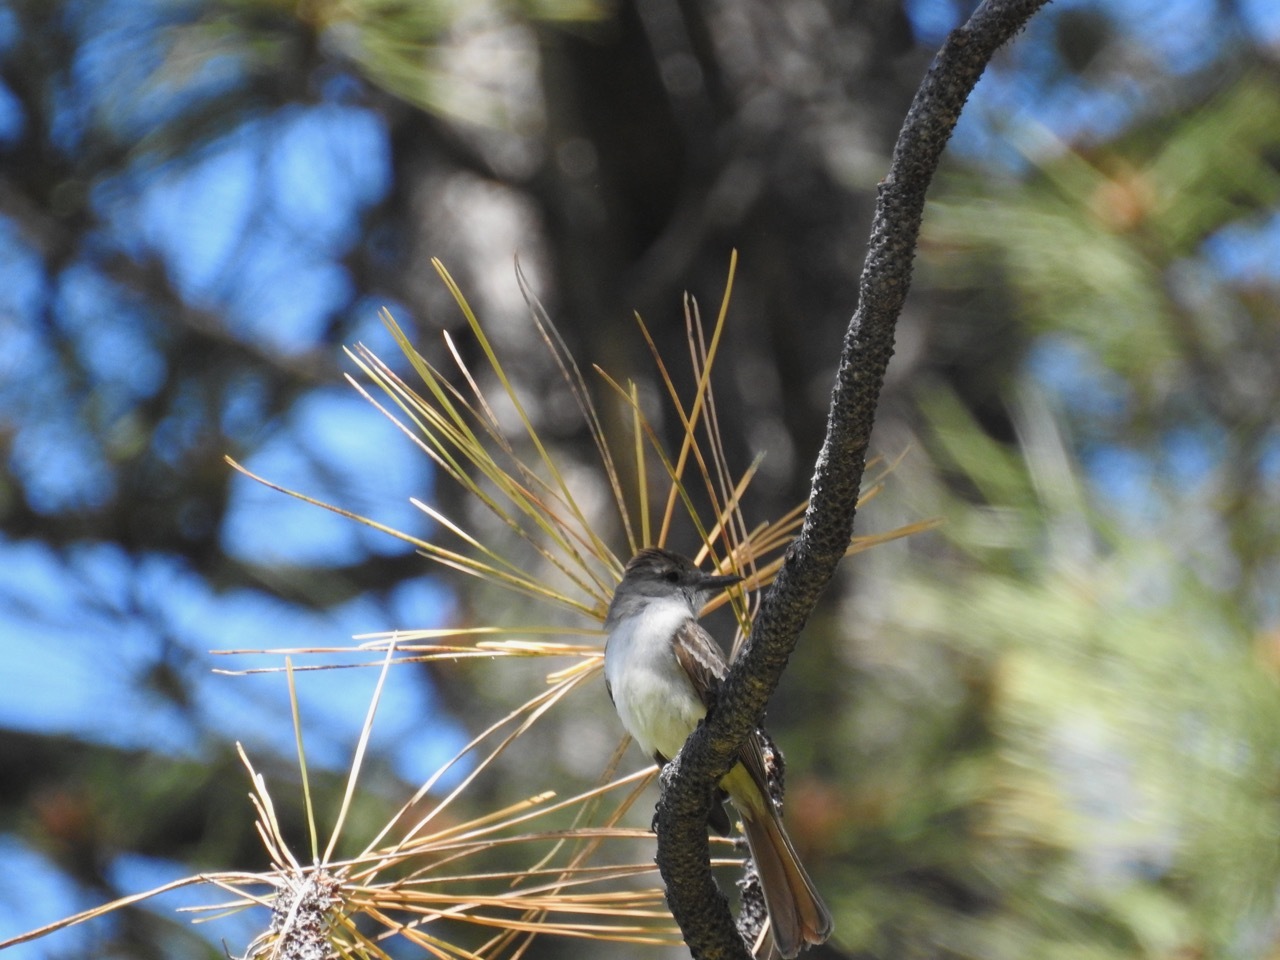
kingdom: Animalia
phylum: Chordata
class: Aves
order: Passeriformes
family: Tyrannidae
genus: Myiarchus
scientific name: Myiarchus cinerascens
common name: Ash-throated flycatcher
